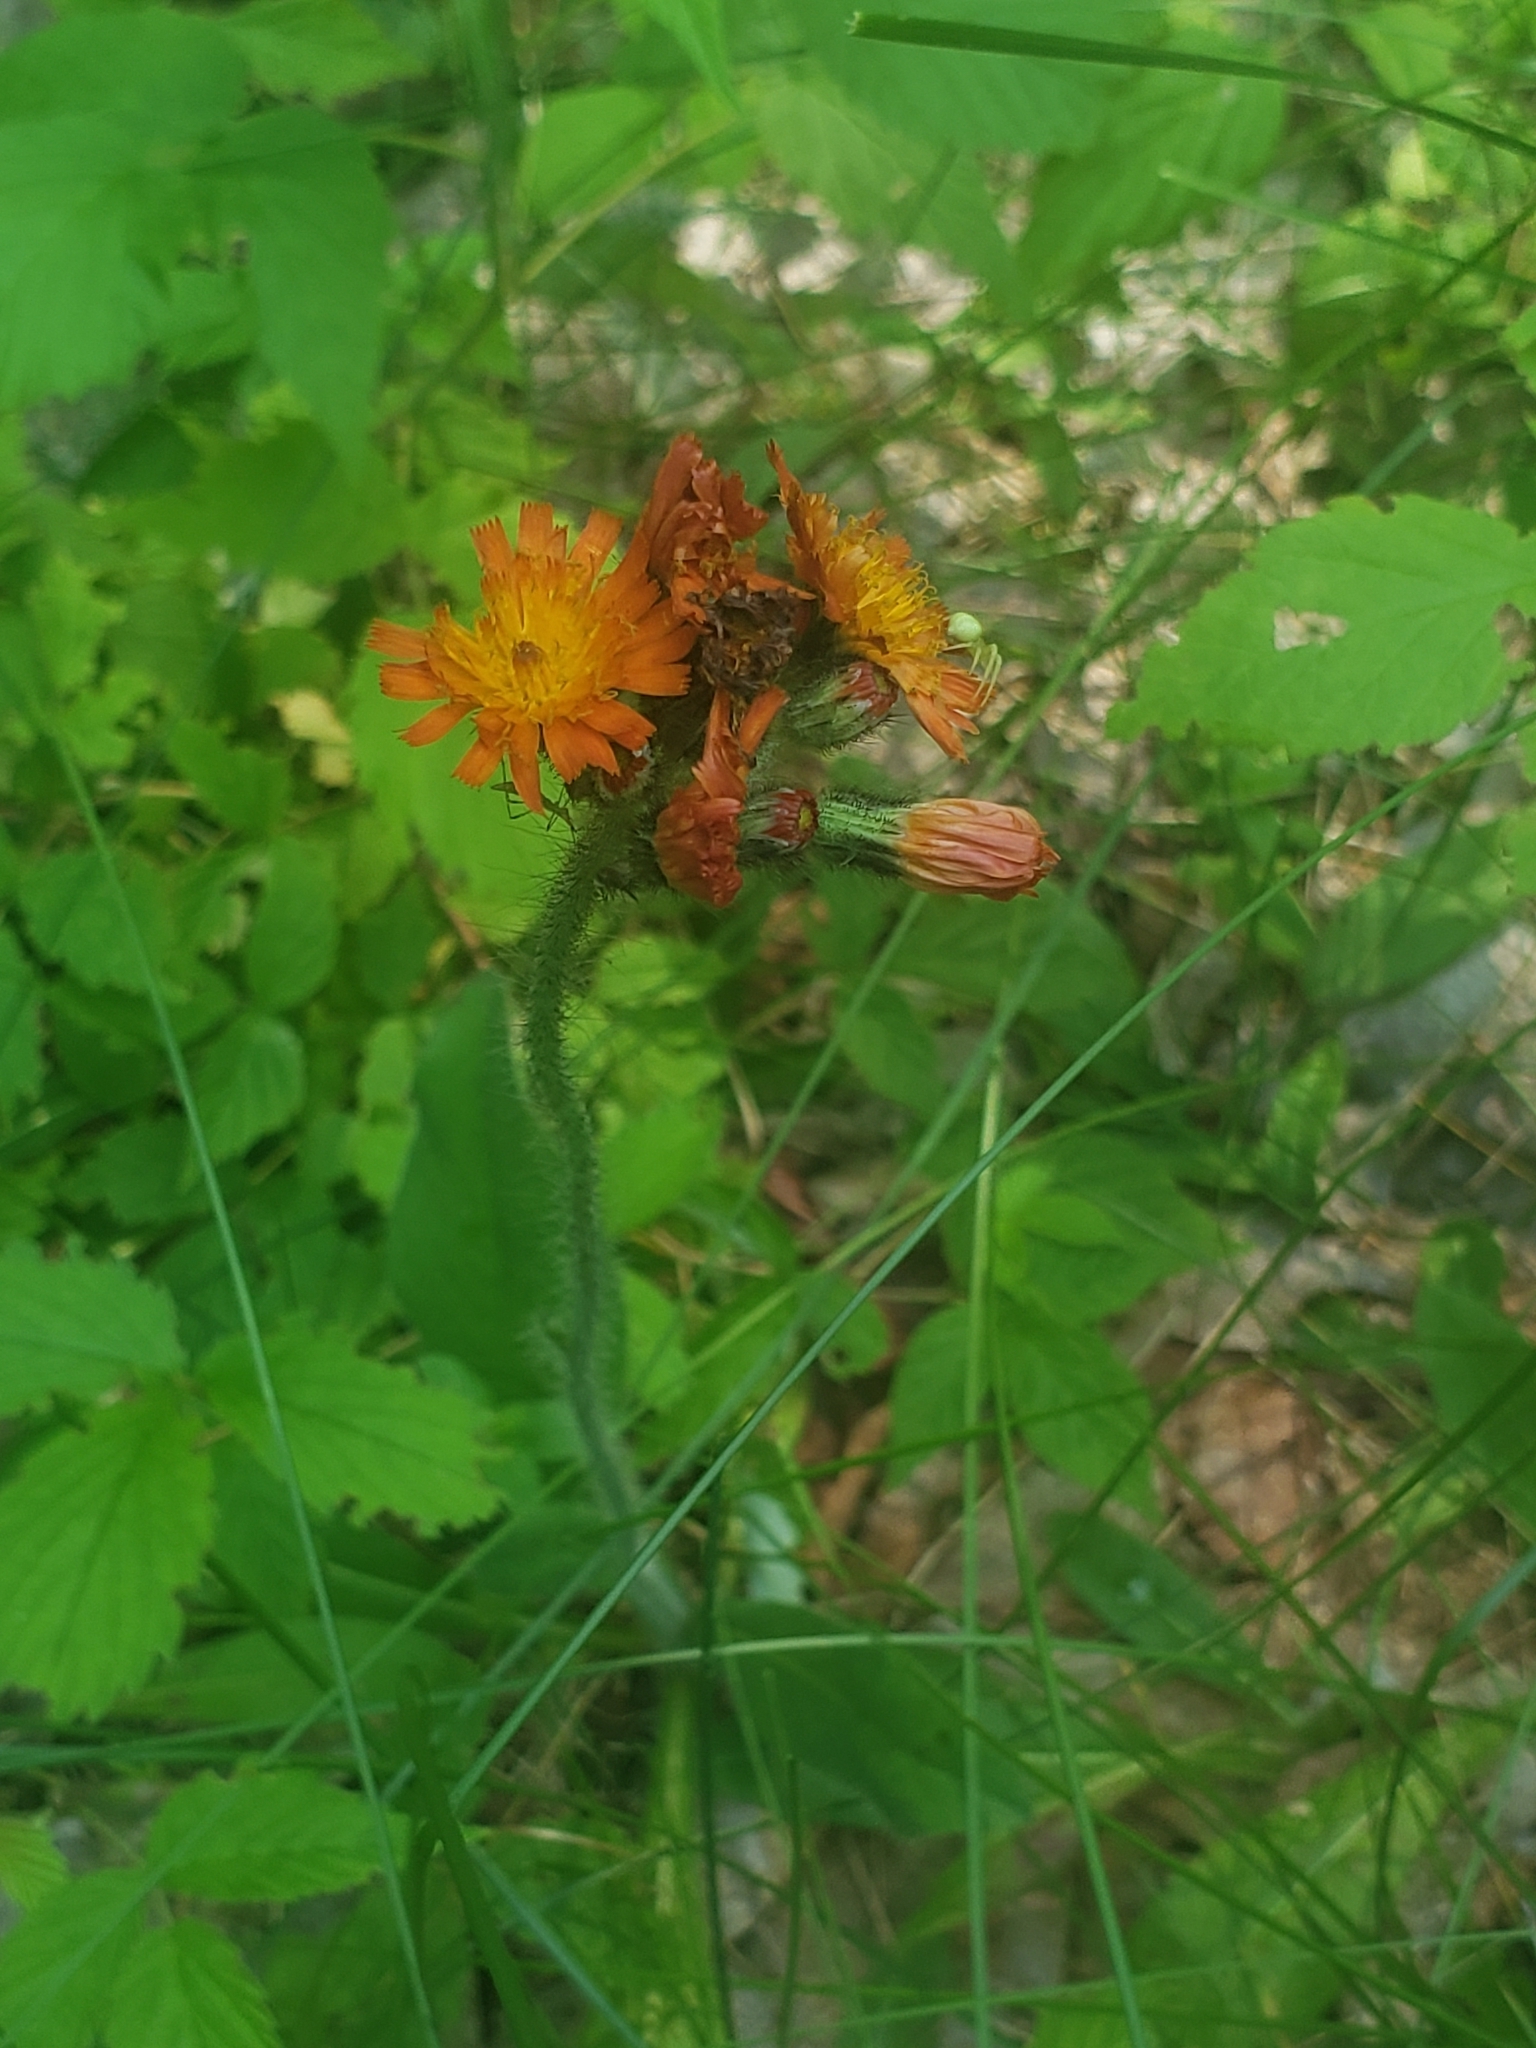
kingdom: Plantae
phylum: Tracheophyta
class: Magnoliopsida
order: Asterales
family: Asteraceae
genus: Pilosella
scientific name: Pilosella aurantiaca
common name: Fox-and-cubs
